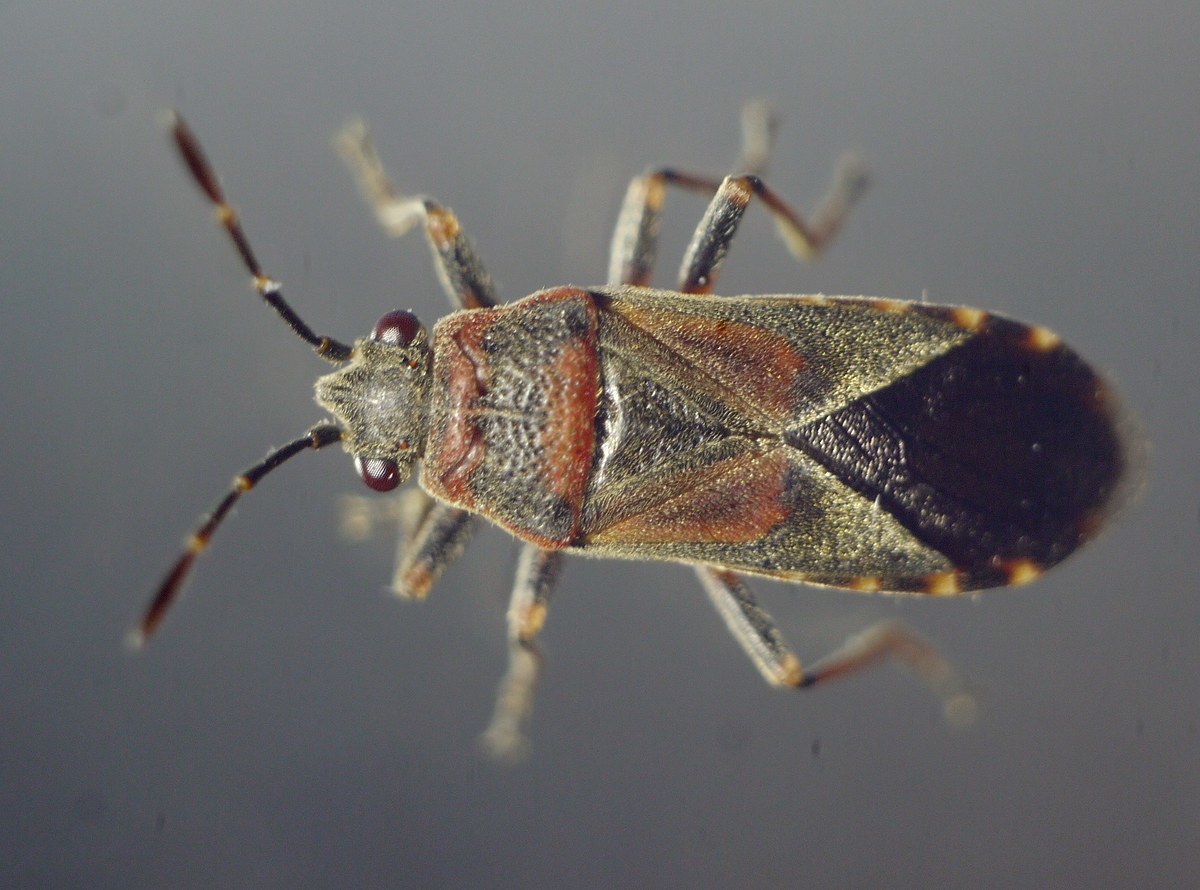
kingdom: Animalia
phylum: Arthropoda
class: Insecta
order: Hemiptera
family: Lygaeidae
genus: Arocatus
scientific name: Arocatus melanocephalus
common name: Lygaeid bug
